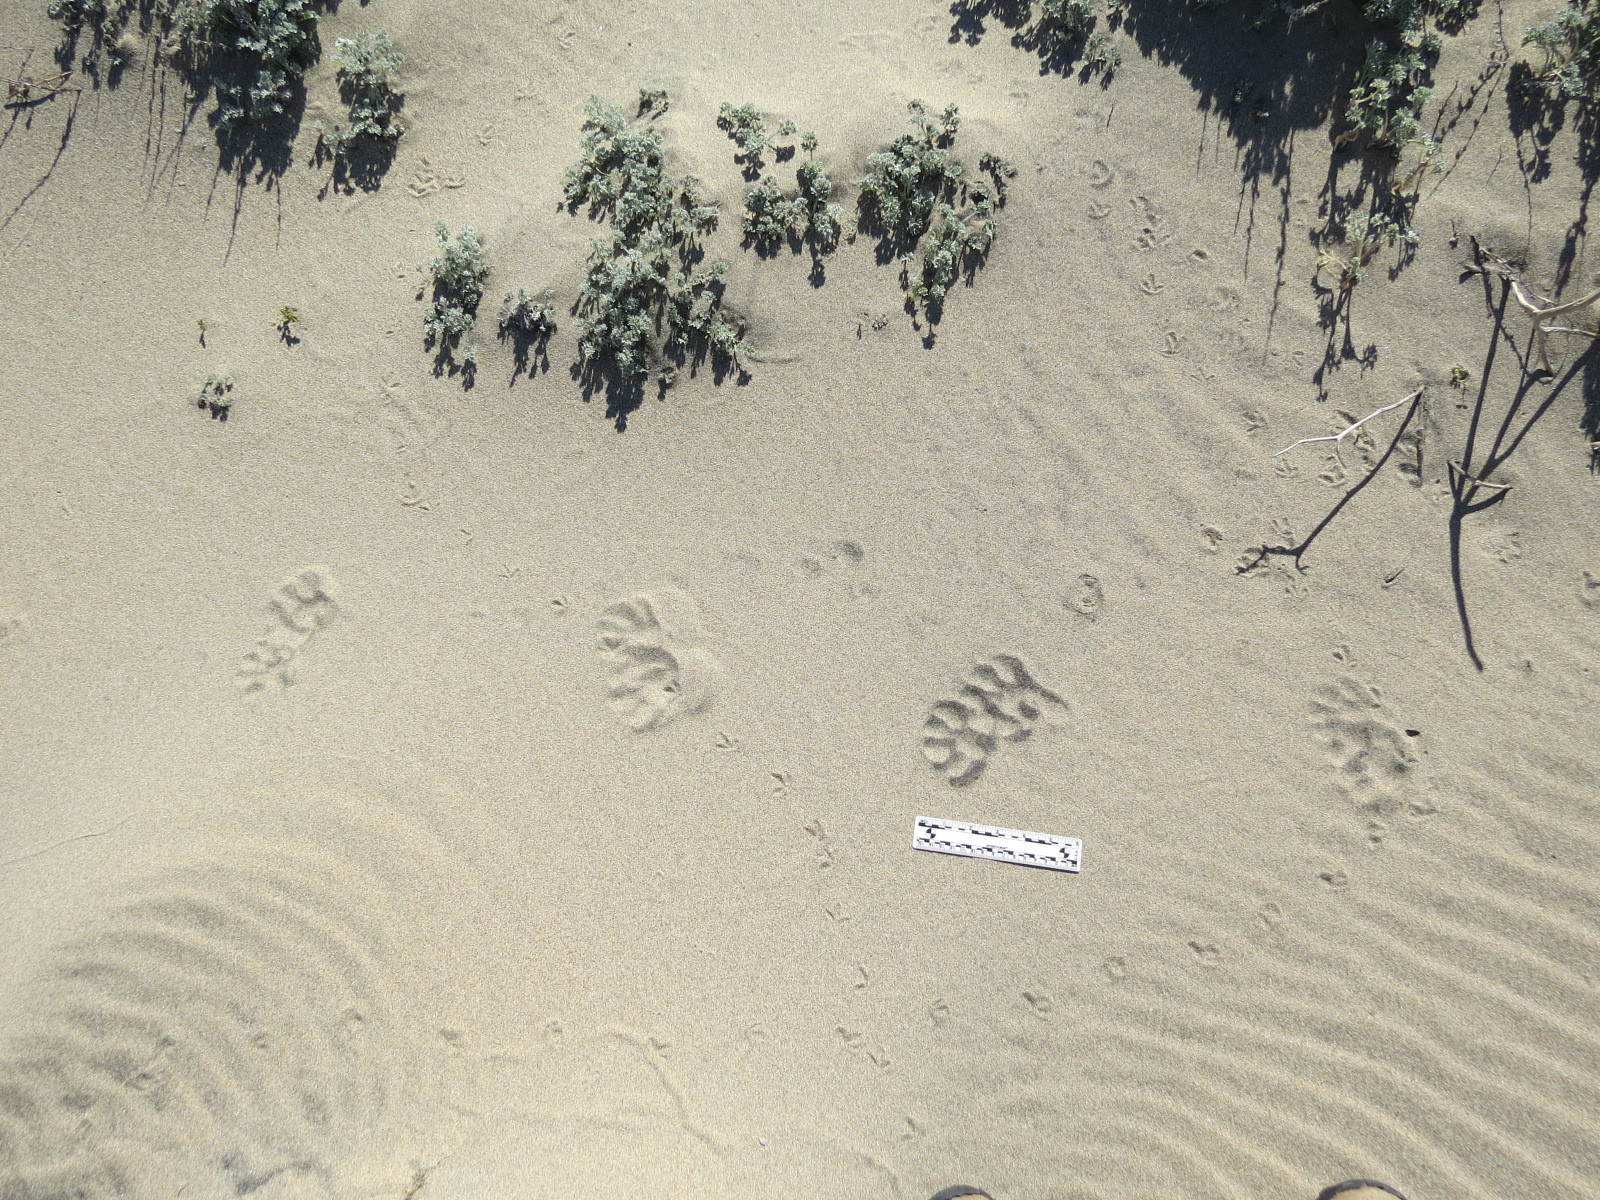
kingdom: Animalia
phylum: Chordata
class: Mammalia
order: Carnivora
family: Procyonidae
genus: Procyon
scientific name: Procyon lotor
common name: Raccoon
